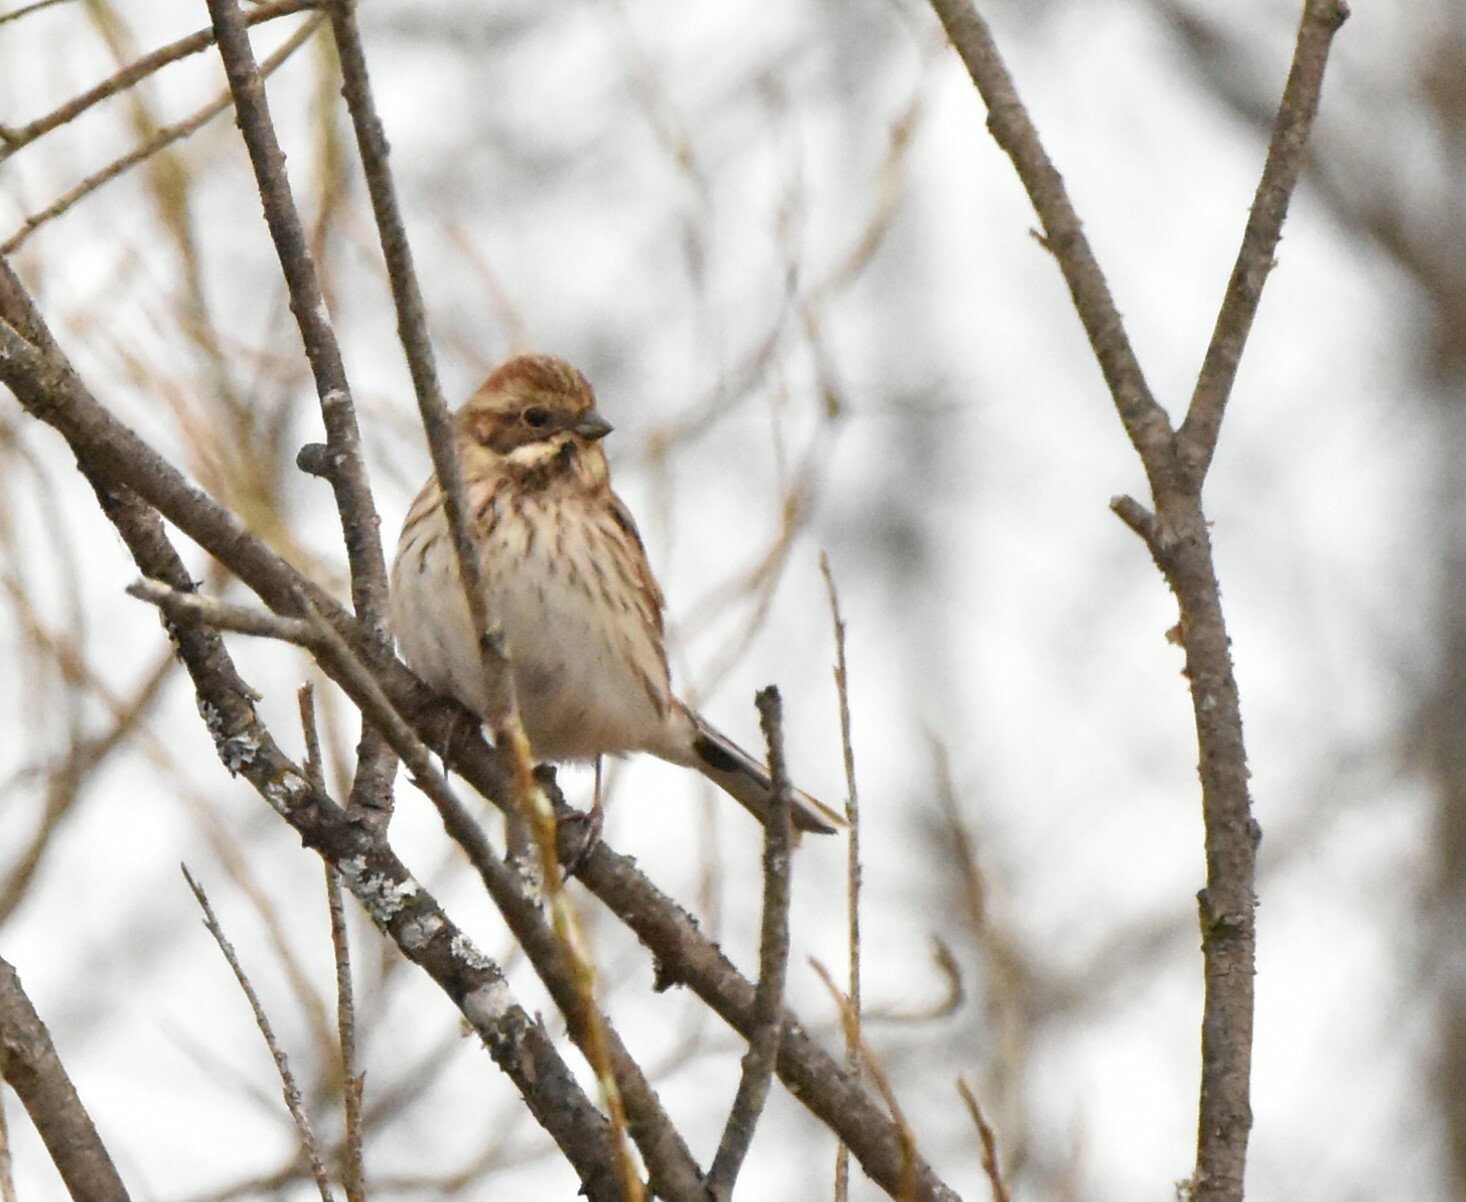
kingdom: Animalia
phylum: Chordata
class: Aves
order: Passeriformes
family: Emberizidae
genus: Emberiza
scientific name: Emberiza schoeniclus
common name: Reed bunting
